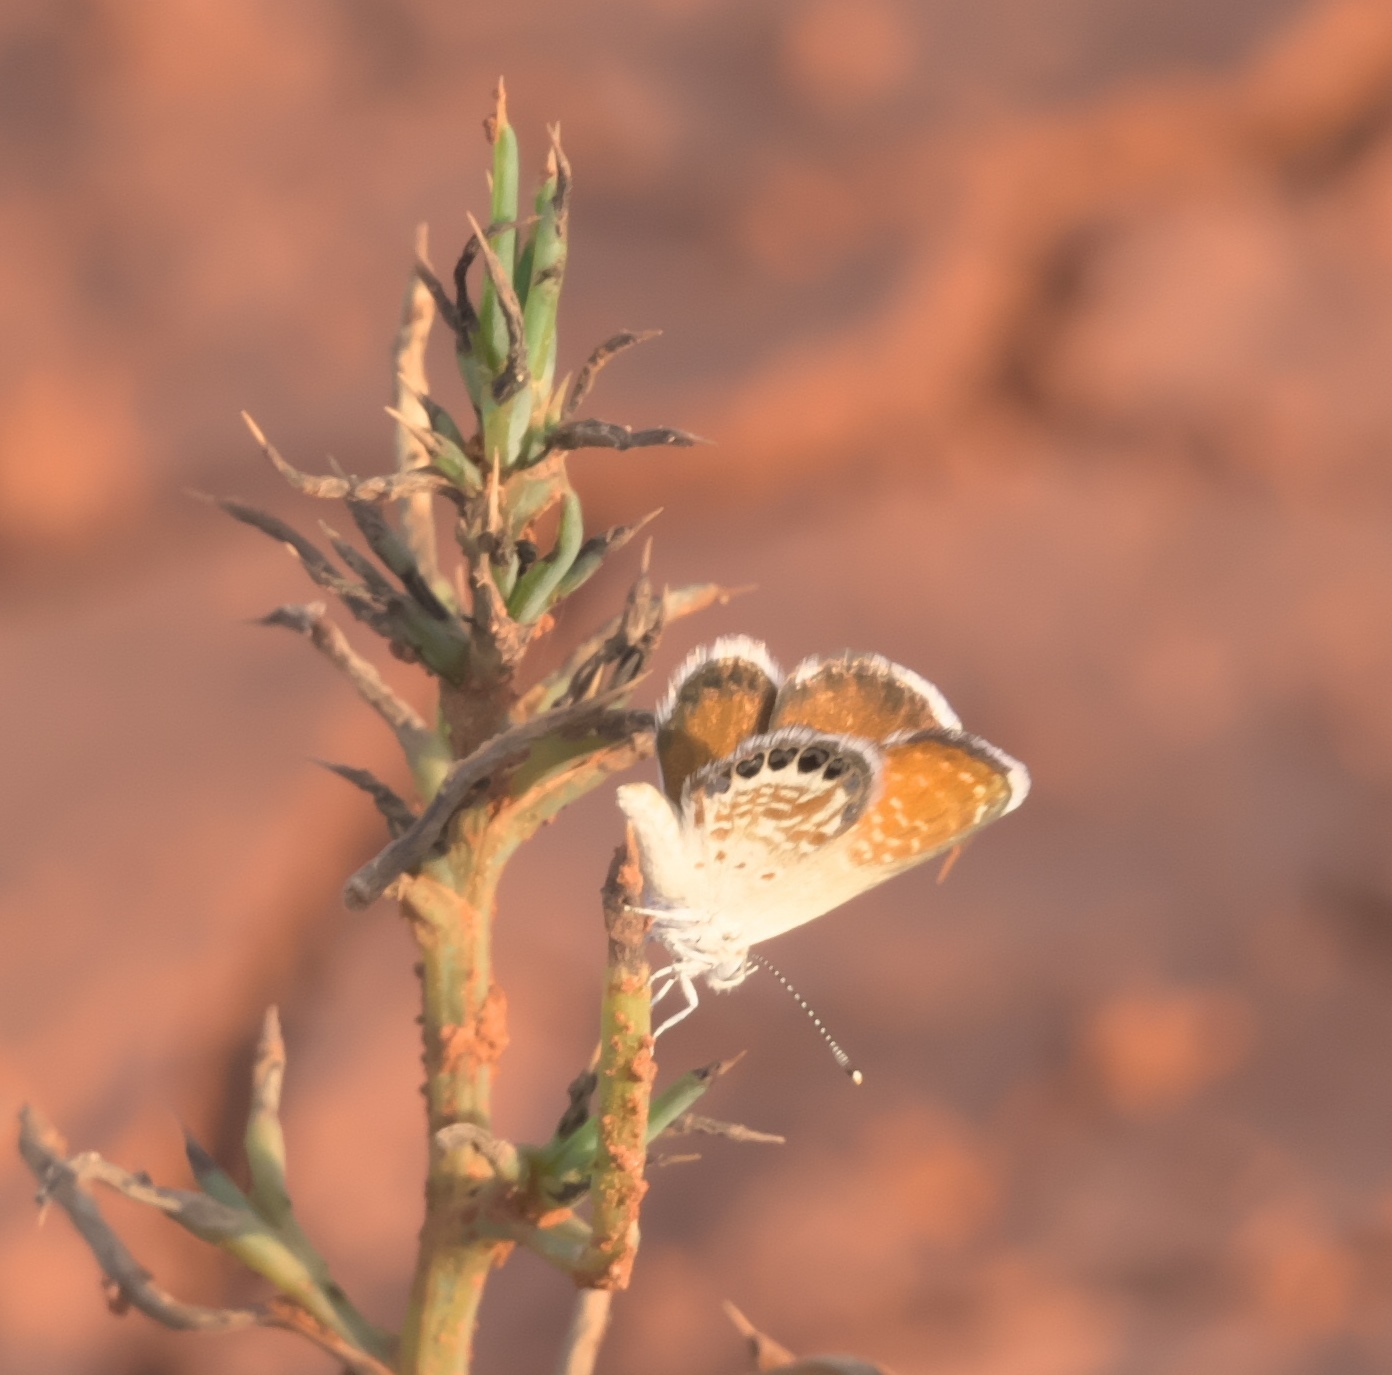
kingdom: Animalia
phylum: Arthropoda
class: Insecta
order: Lepidoptera
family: Lycaenidae
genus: Brephidium
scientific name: Brephidium exilis
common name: Pygmy blue
